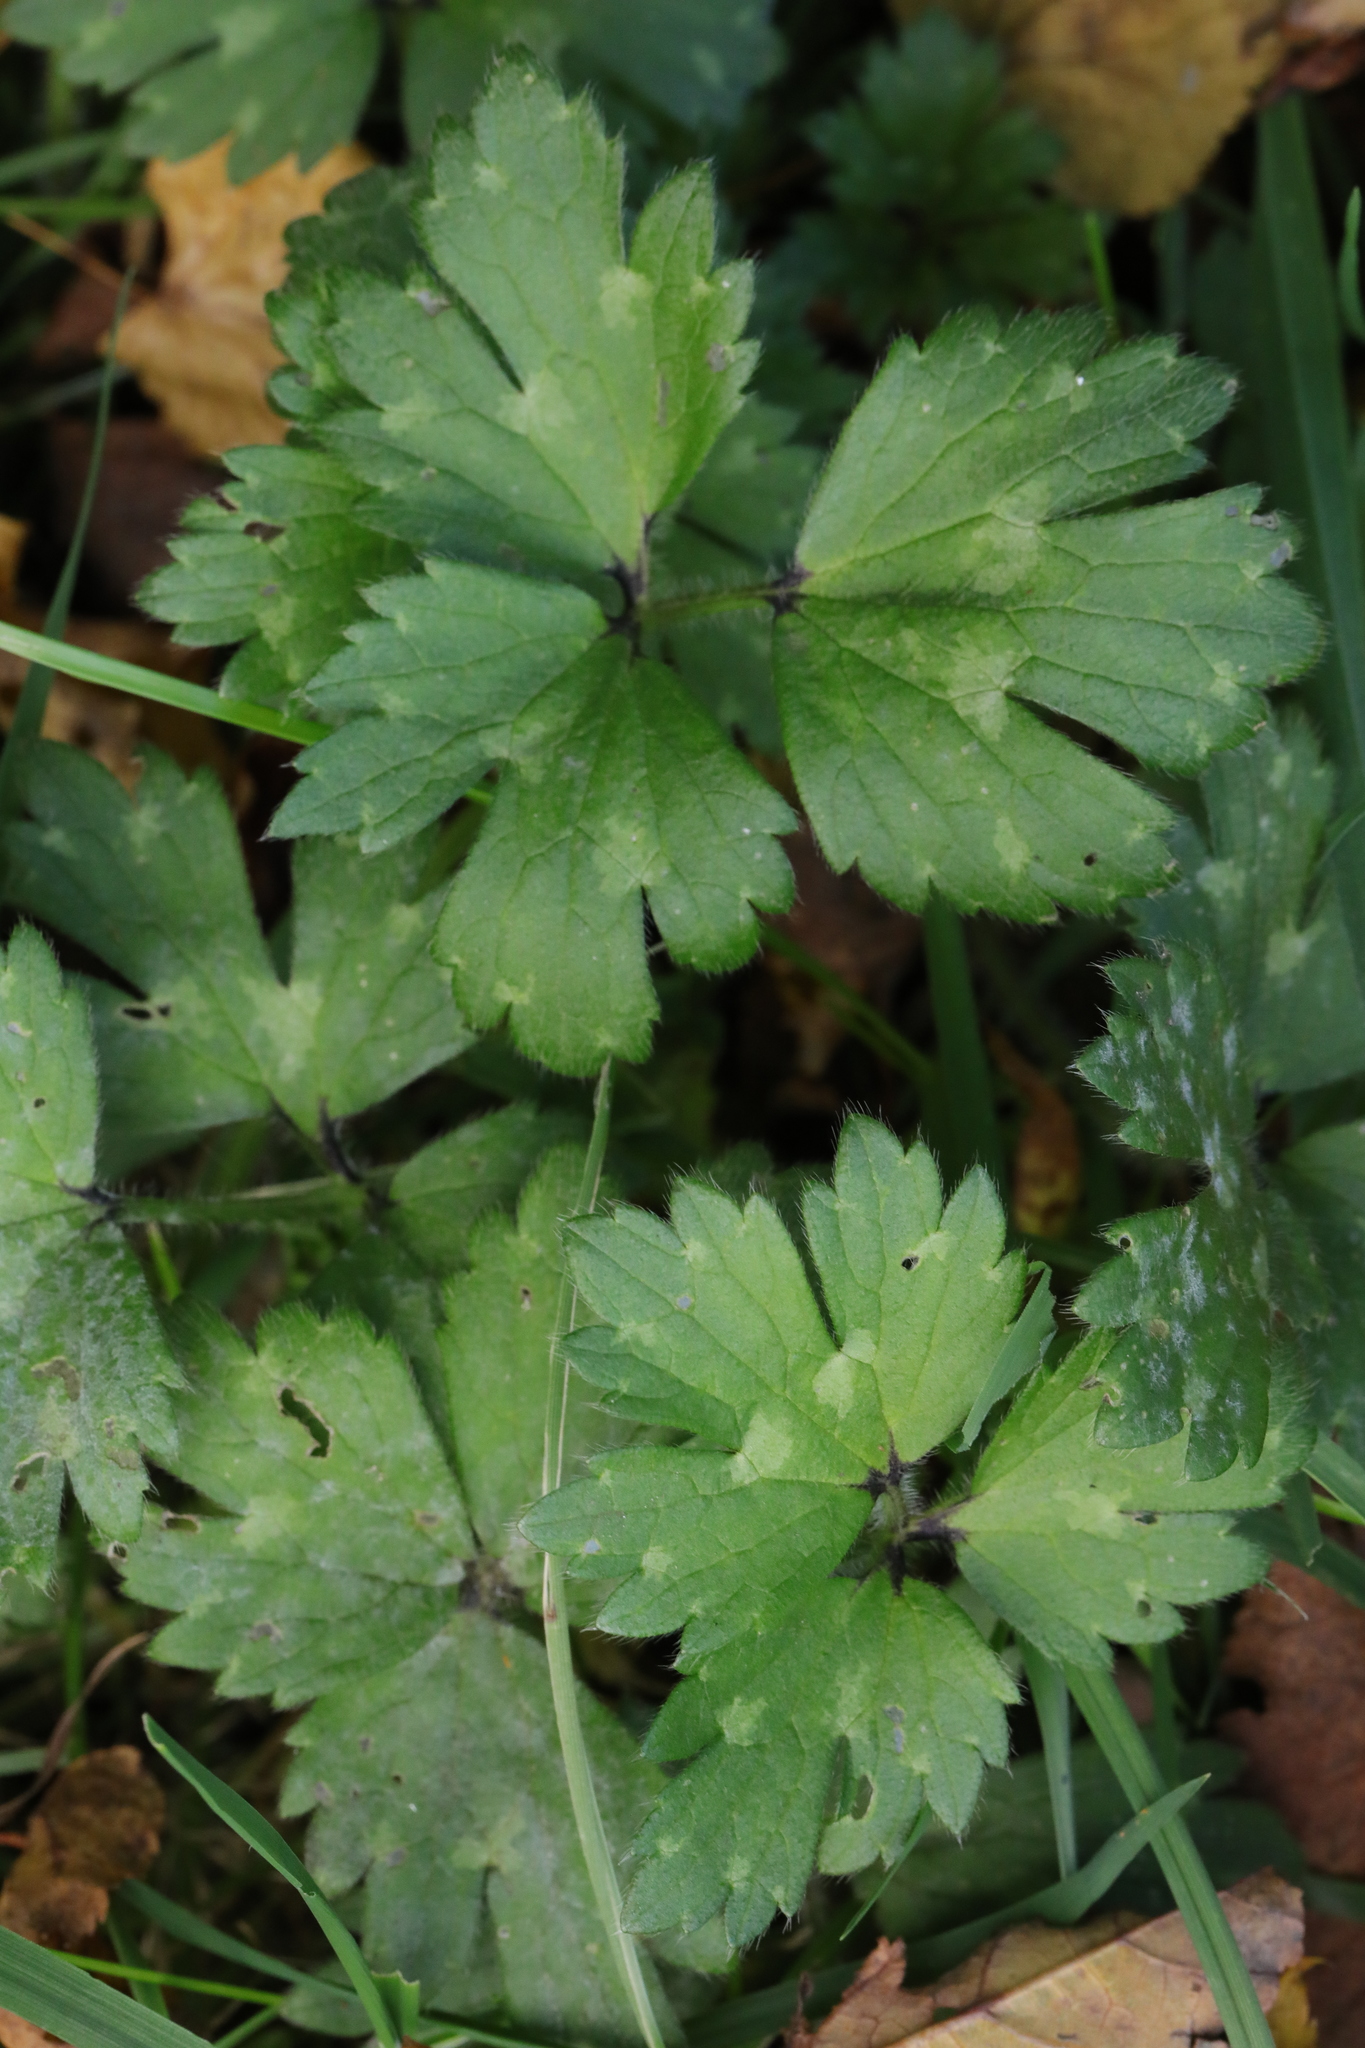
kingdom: Plantae
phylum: Tracheophyta
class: Magnoliopsida
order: Ranunculales
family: Ranunculaceae
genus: Ranunculus
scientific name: Ranunculus repens
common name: Creeping buttercup
